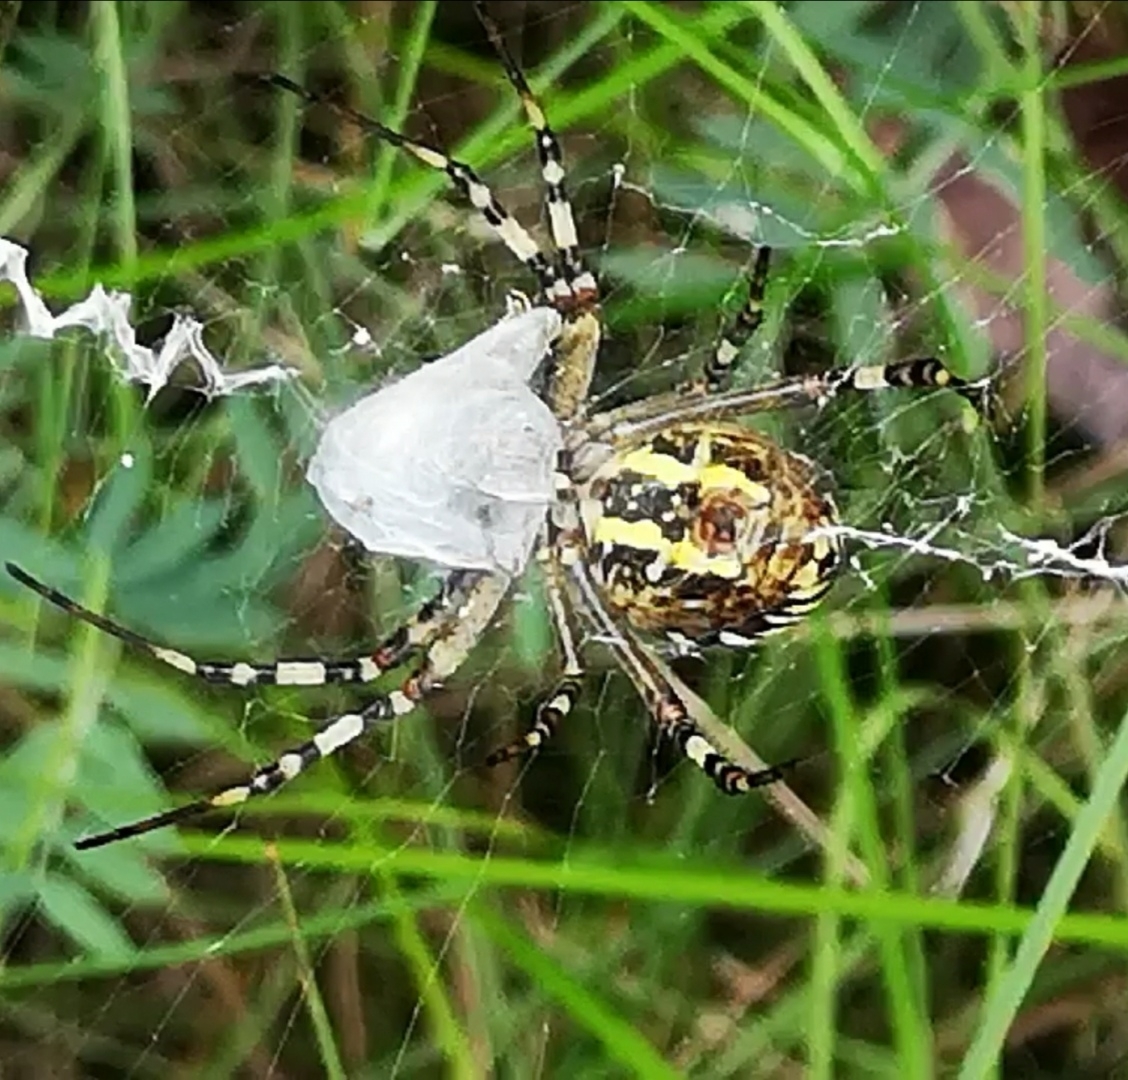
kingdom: Animalia
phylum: Arthropoda
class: Arachnida
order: Araneae
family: Araneidae
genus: Argiope
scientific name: Argiope bruennichi
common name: Wasp spider
